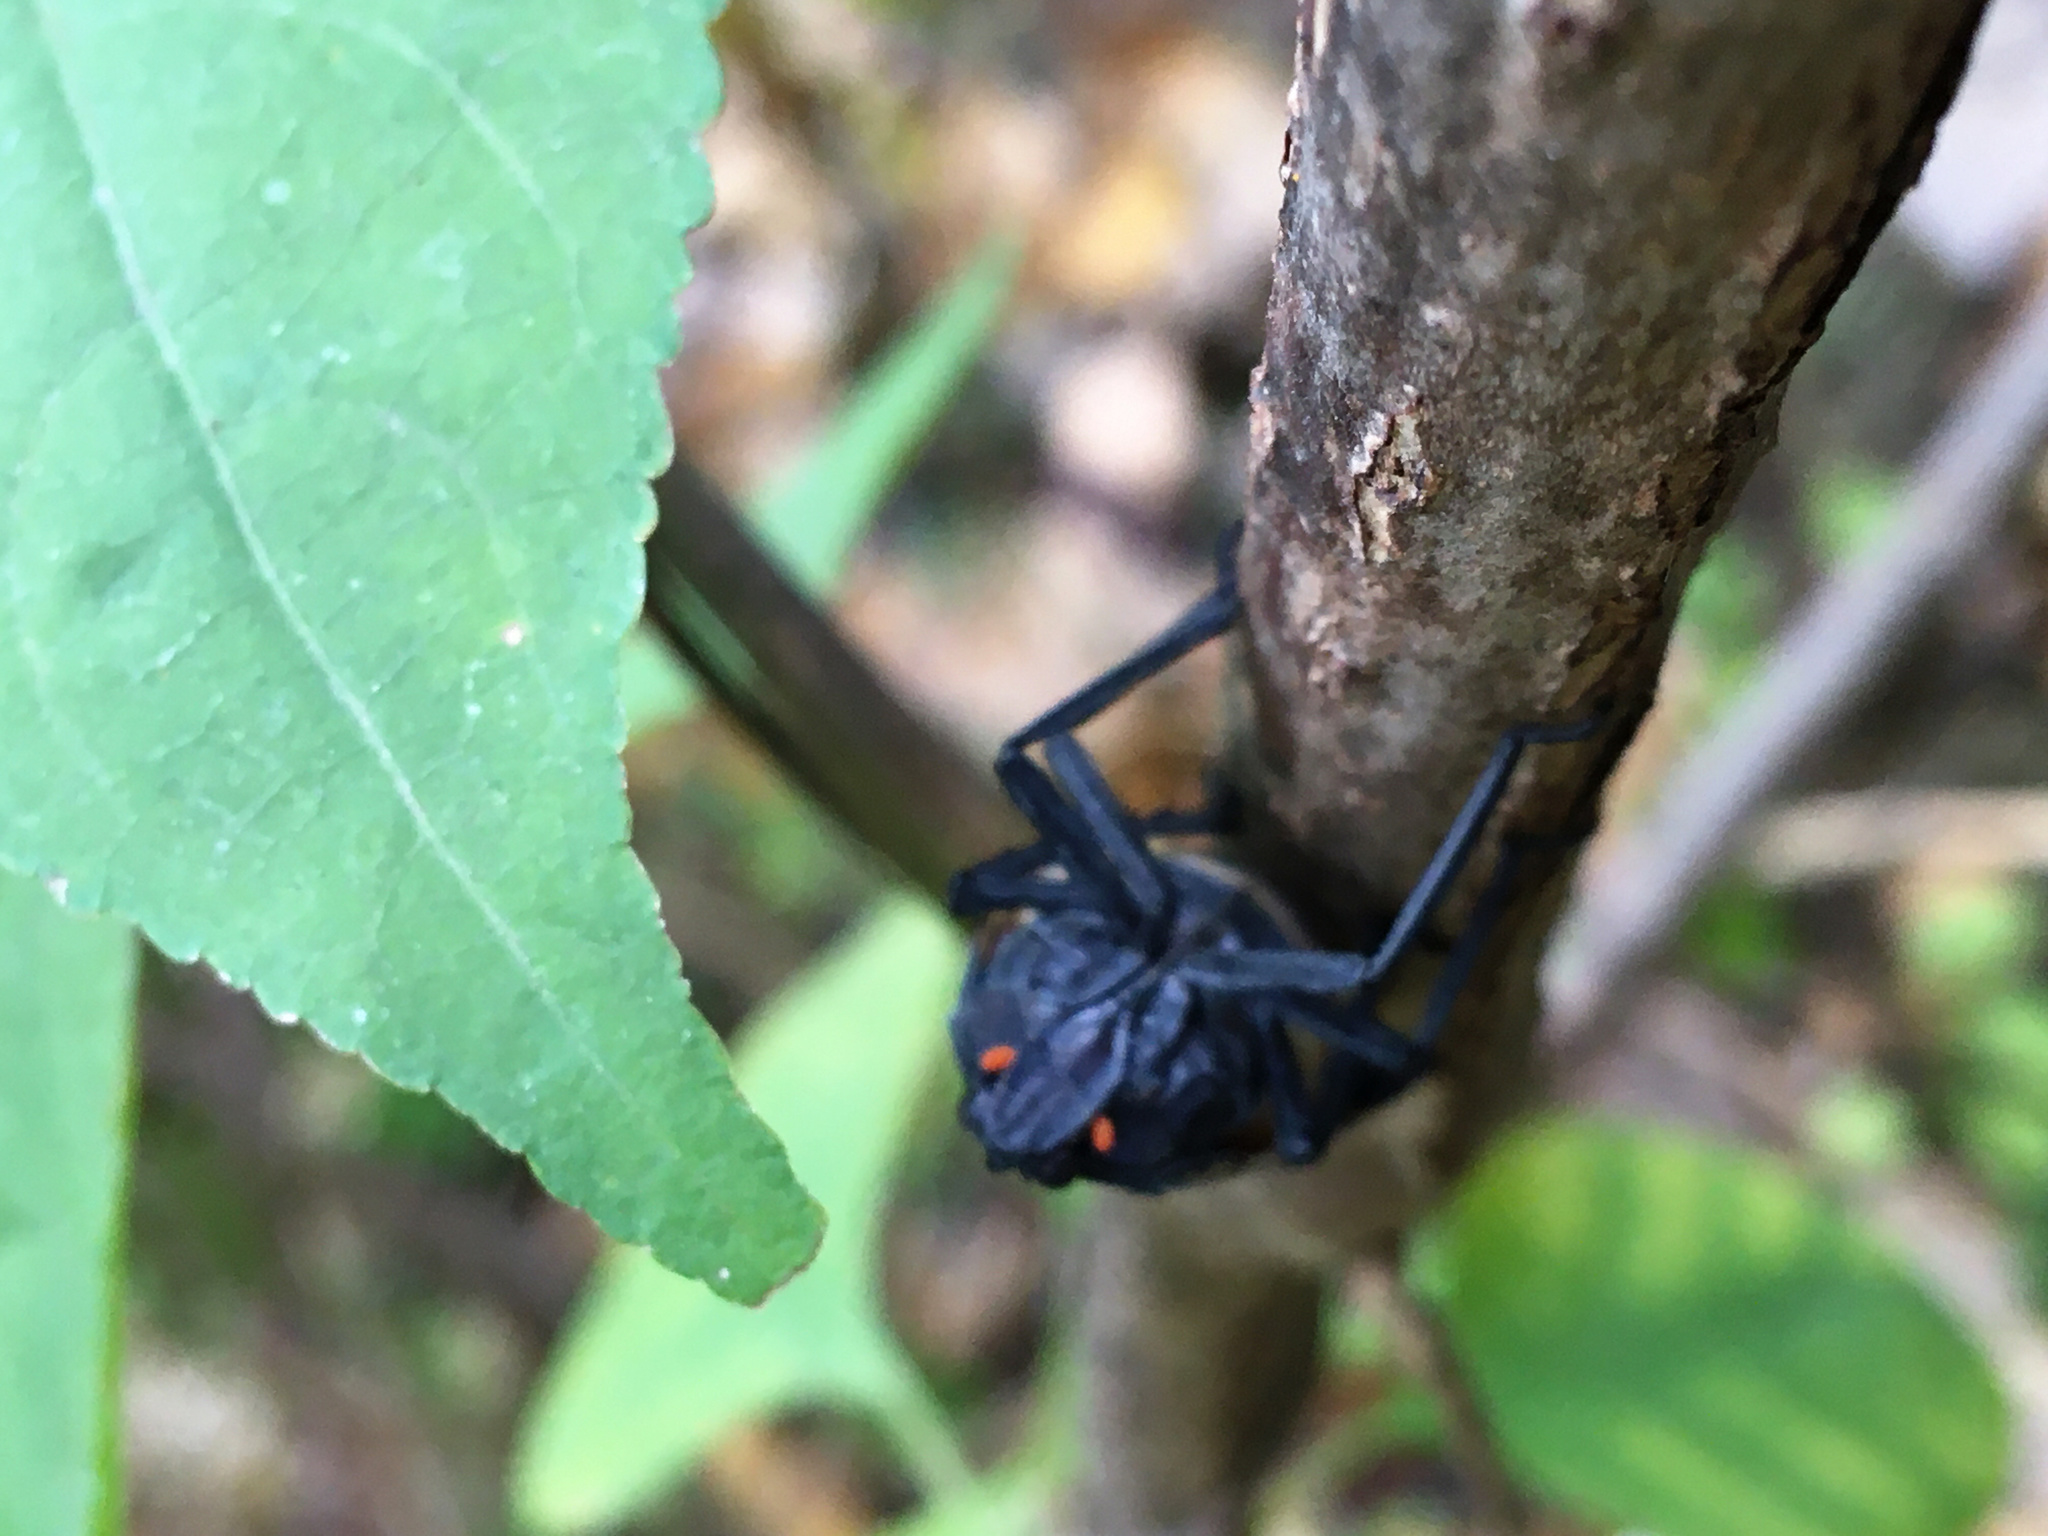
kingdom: Animalia
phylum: Arthropoda
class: Insecta
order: Hemiptera
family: Fulgoridae
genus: Lycorma
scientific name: Lycorma delicatula
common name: Spotted lanternfly
